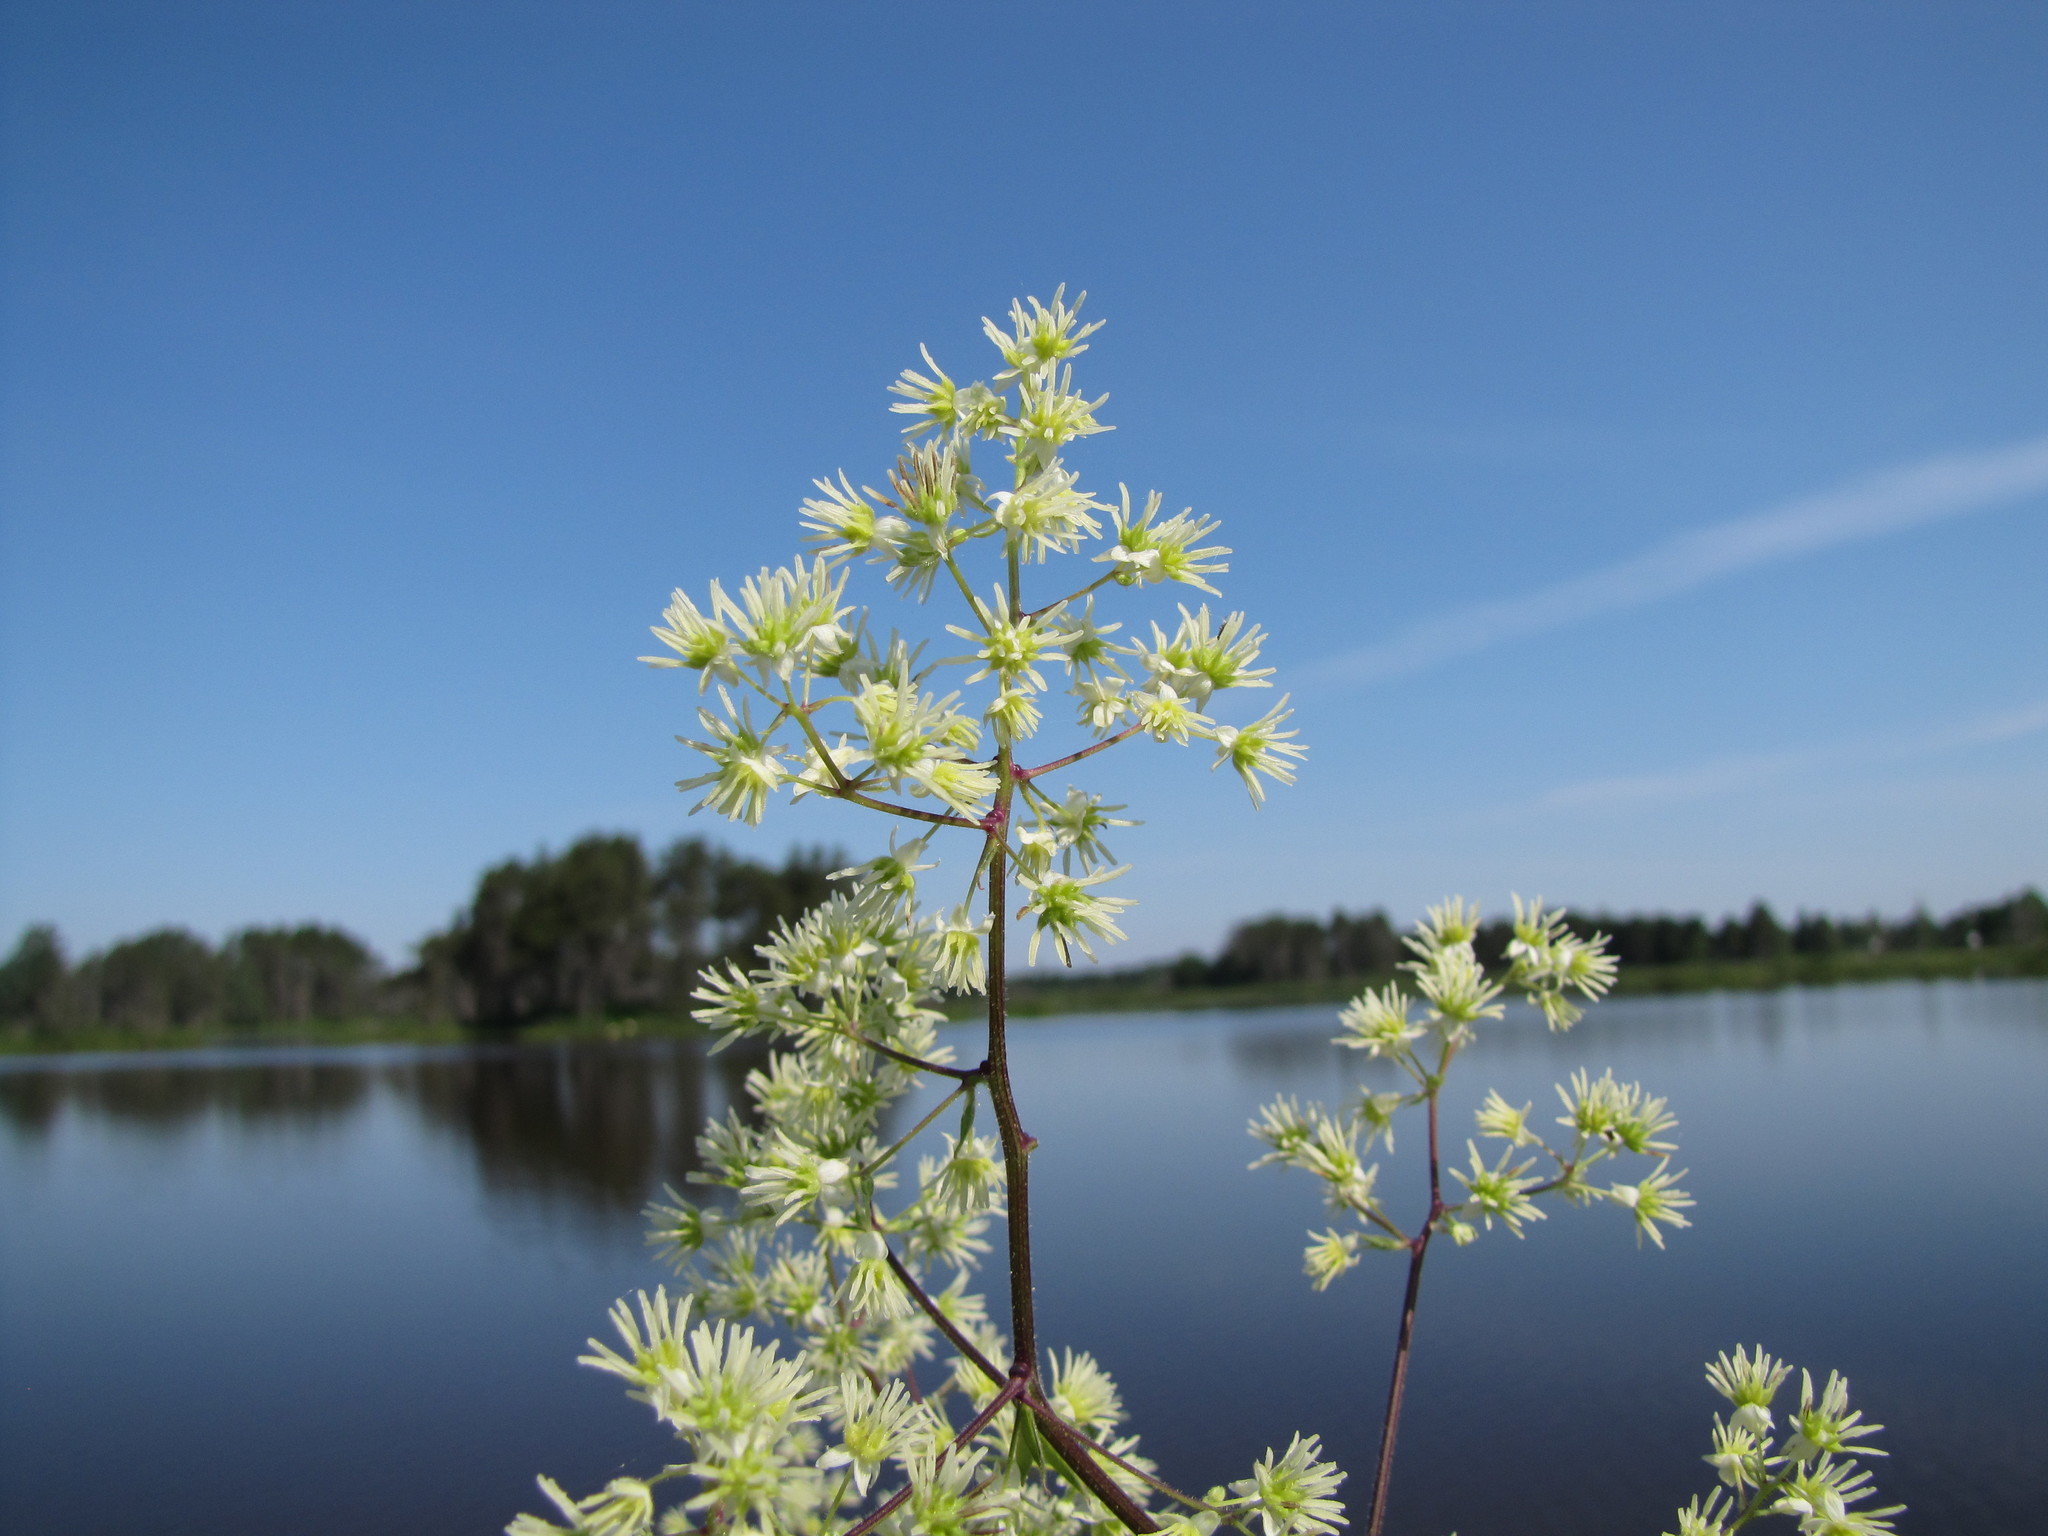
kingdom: Plantae
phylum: Tracheophyta
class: Magnoliopsida
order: Ranunculales
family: Ranunculaceae
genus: Thalictrum
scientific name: Thalictrum dasycarpum
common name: Purple meadow-rue
